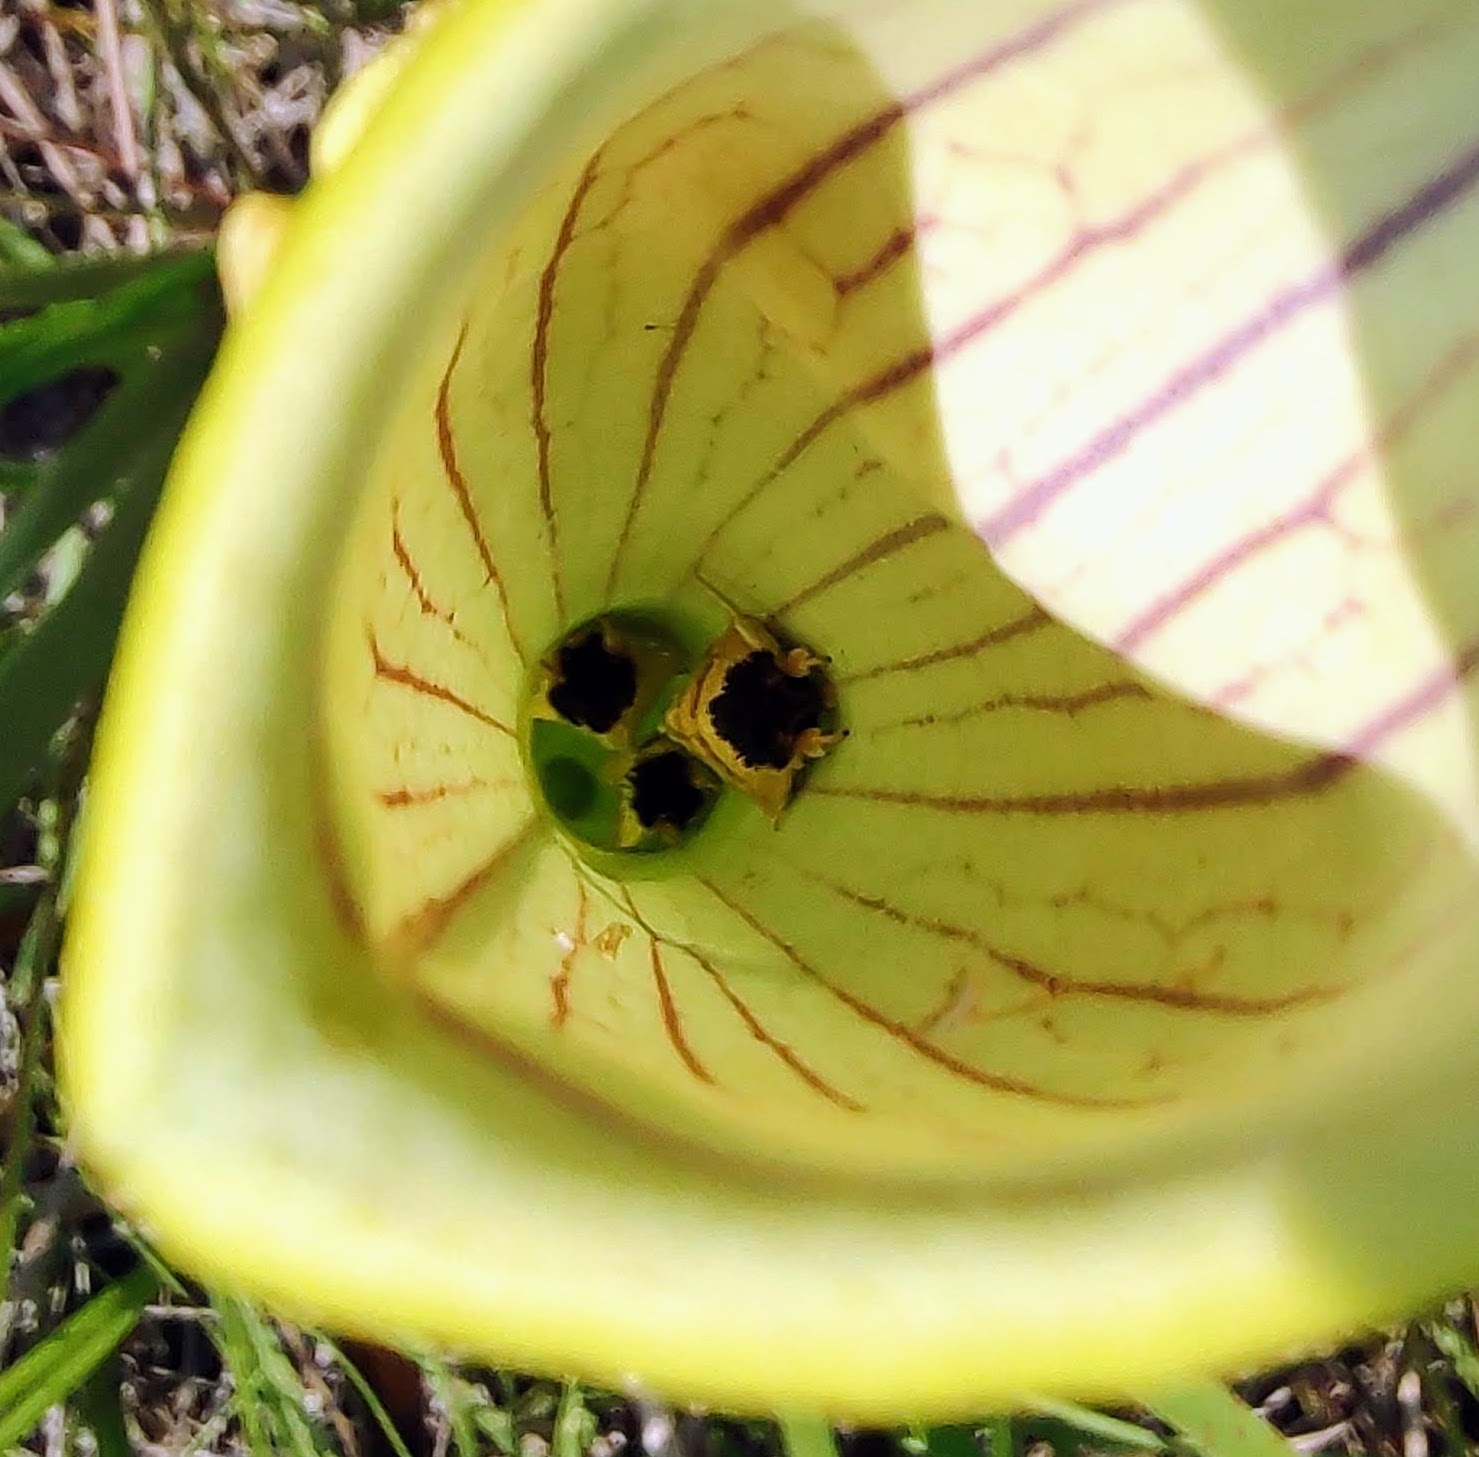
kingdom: Animalia
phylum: Arthropoda
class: Insecta
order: Lepidoptera
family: Noctuidae
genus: Exyra
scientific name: Exyra semicrocea
